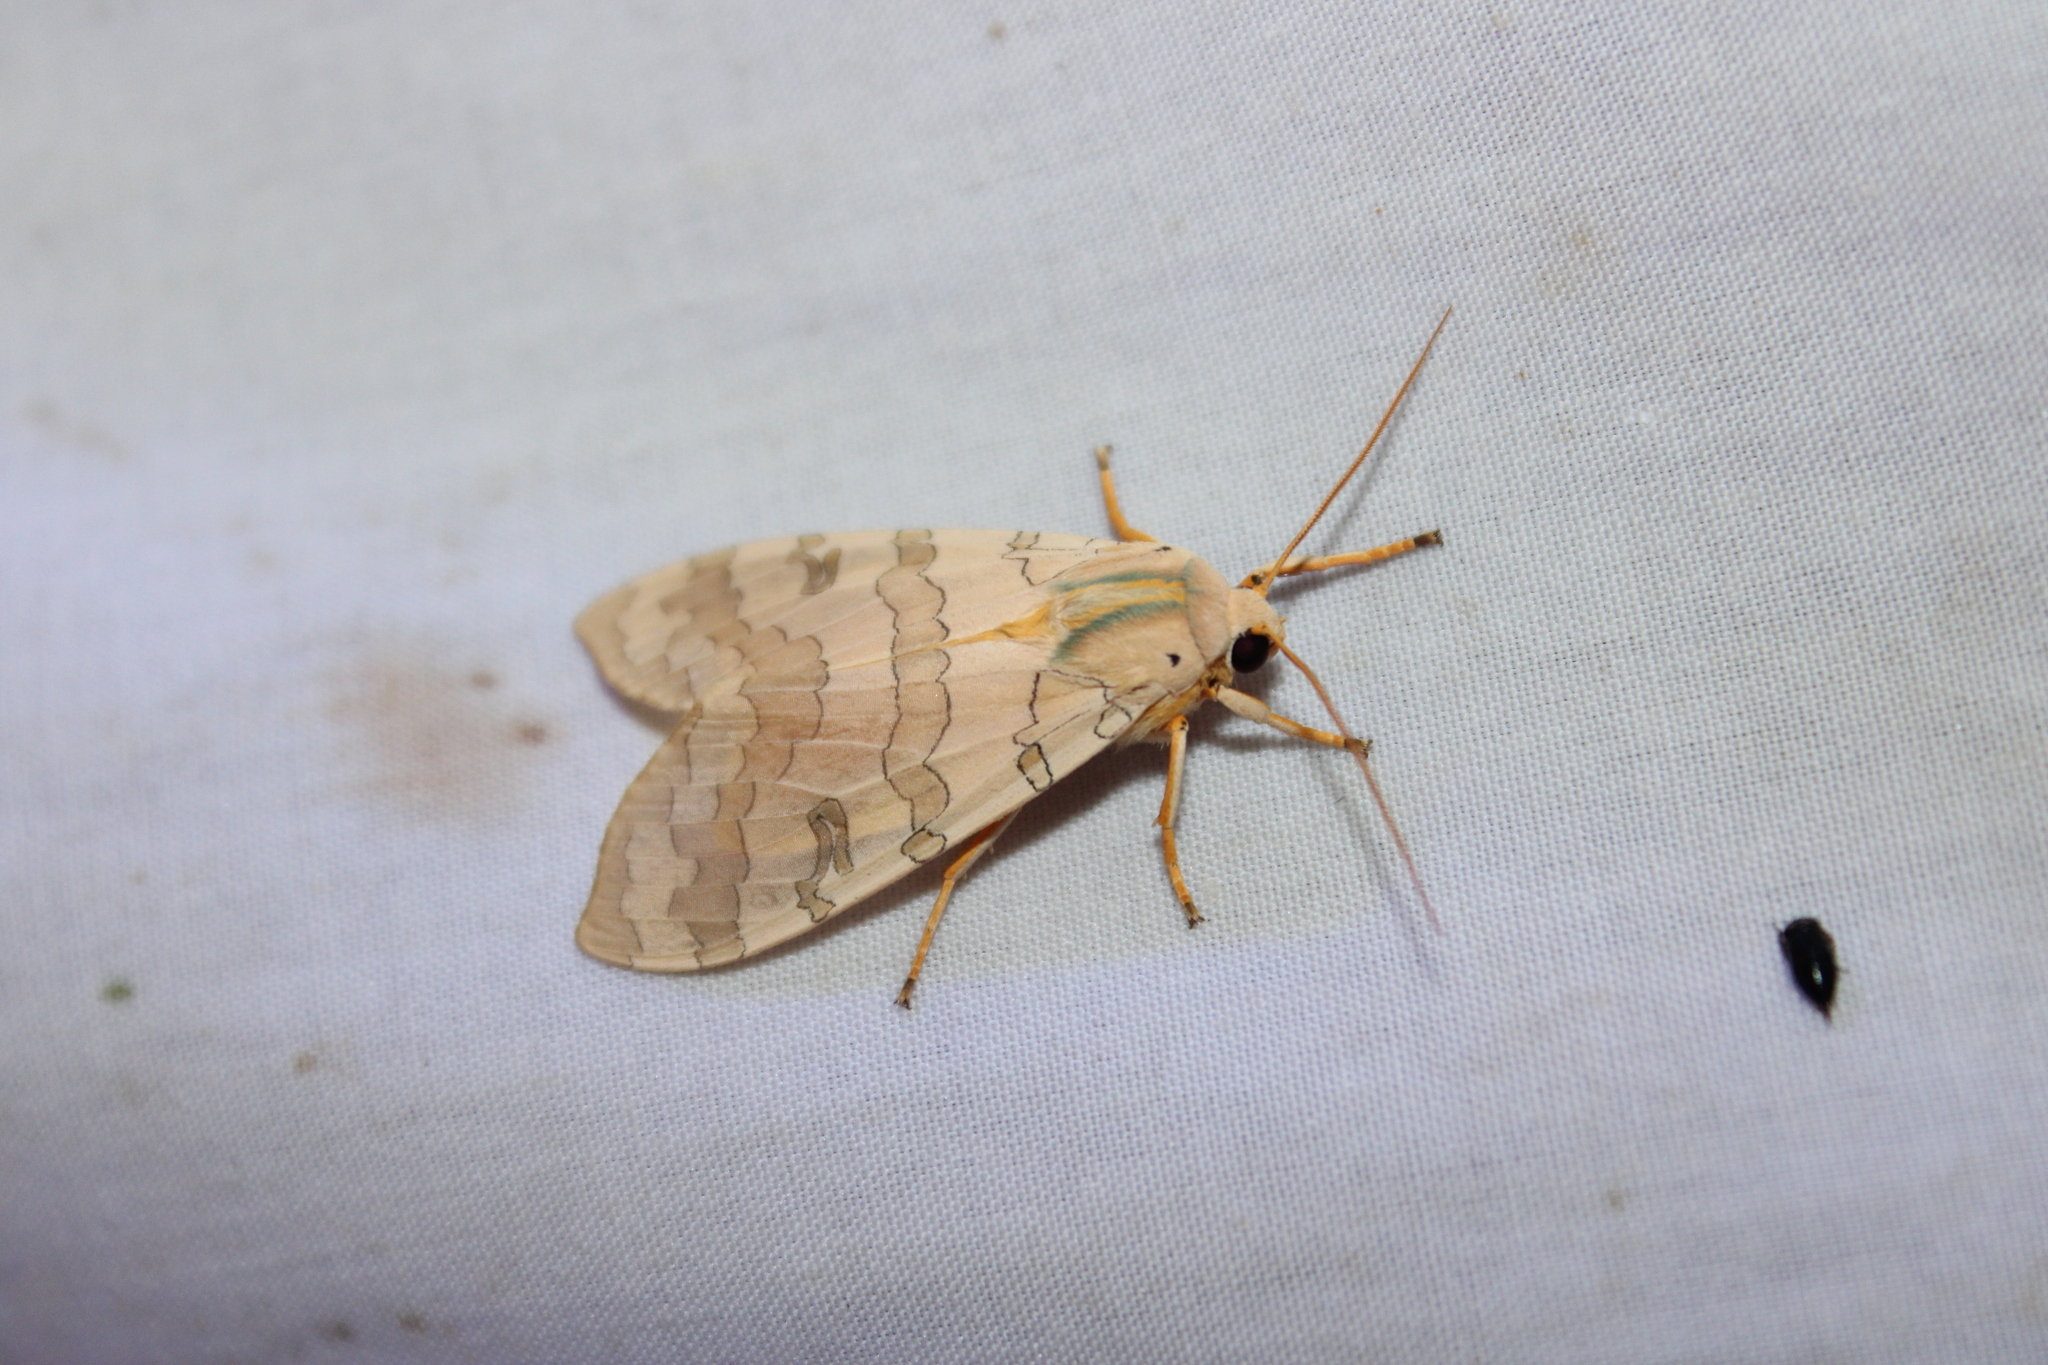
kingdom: Animalia
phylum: Arthropoda
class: Insecta
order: Lepidoptera
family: Erebidae
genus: Halysidota
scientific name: Halysidota
